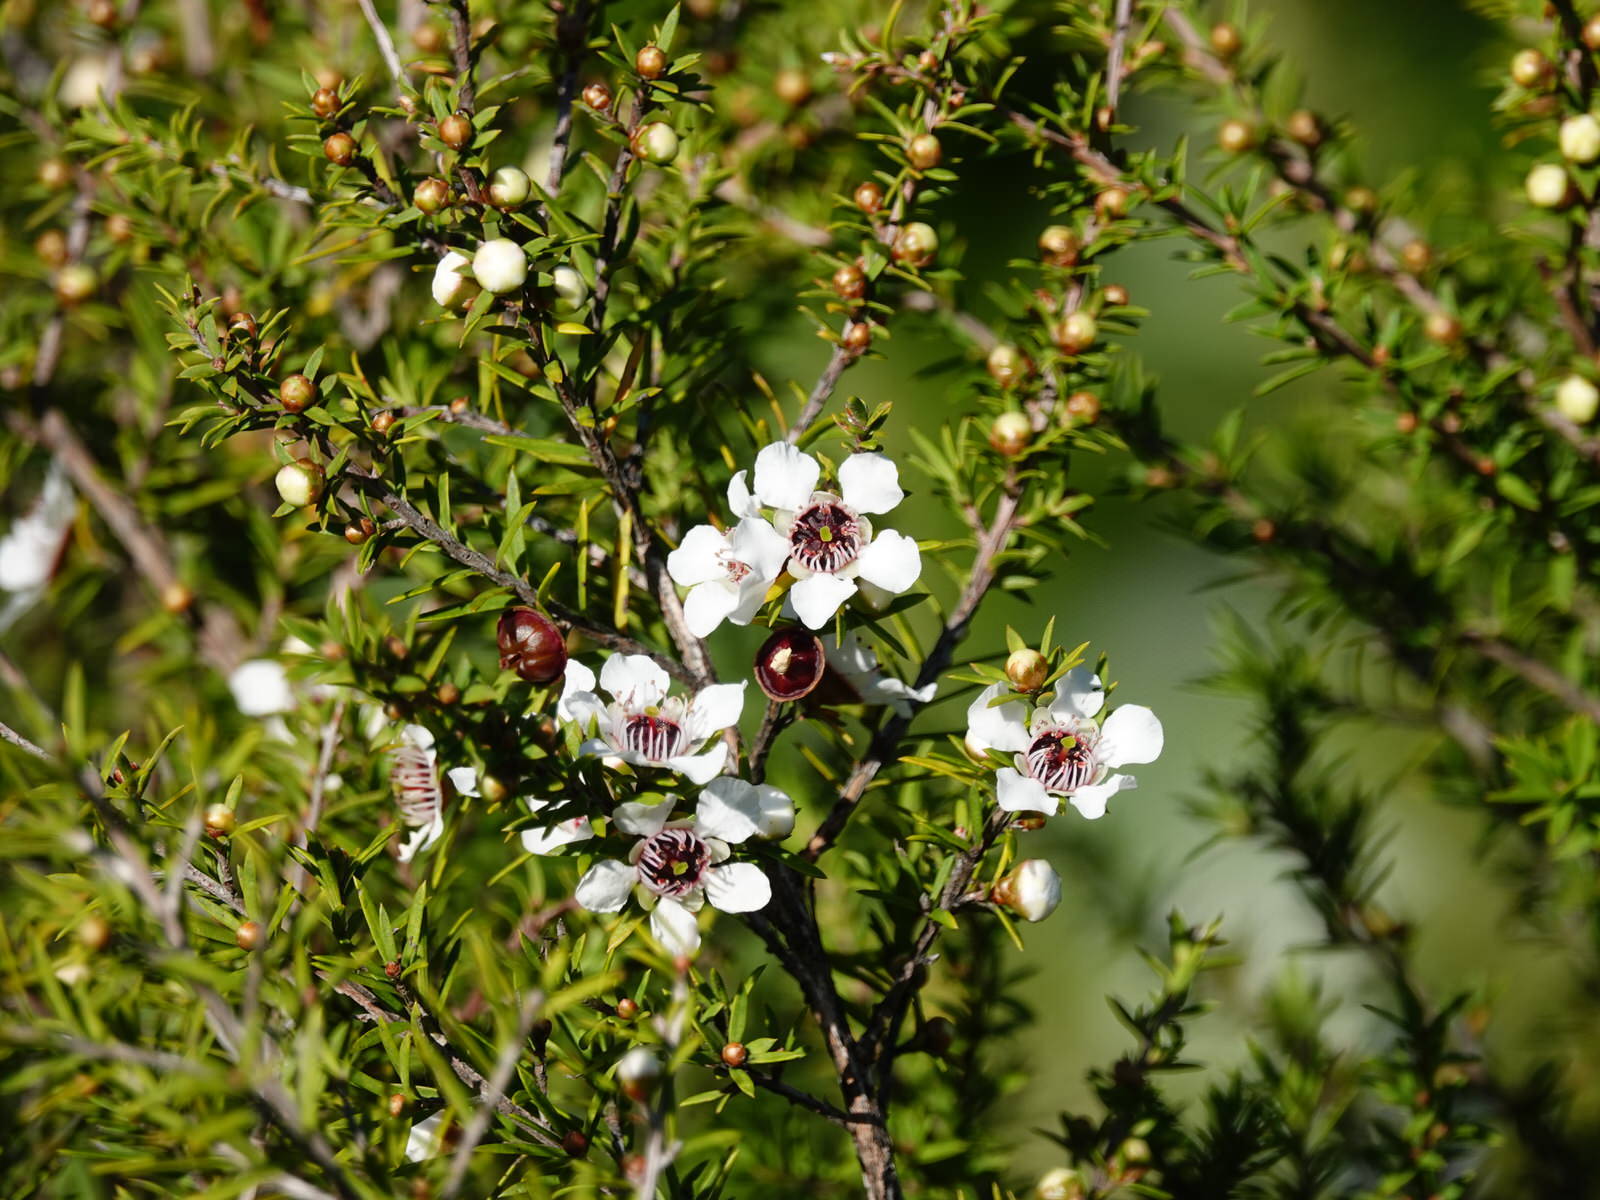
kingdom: Plantae
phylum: Tracheophyta
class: Magnoliopsida
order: Myrtales
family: Myrtaceae
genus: Leptospermum
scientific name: Leptospermum scoparium
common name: Broom tea-tree
